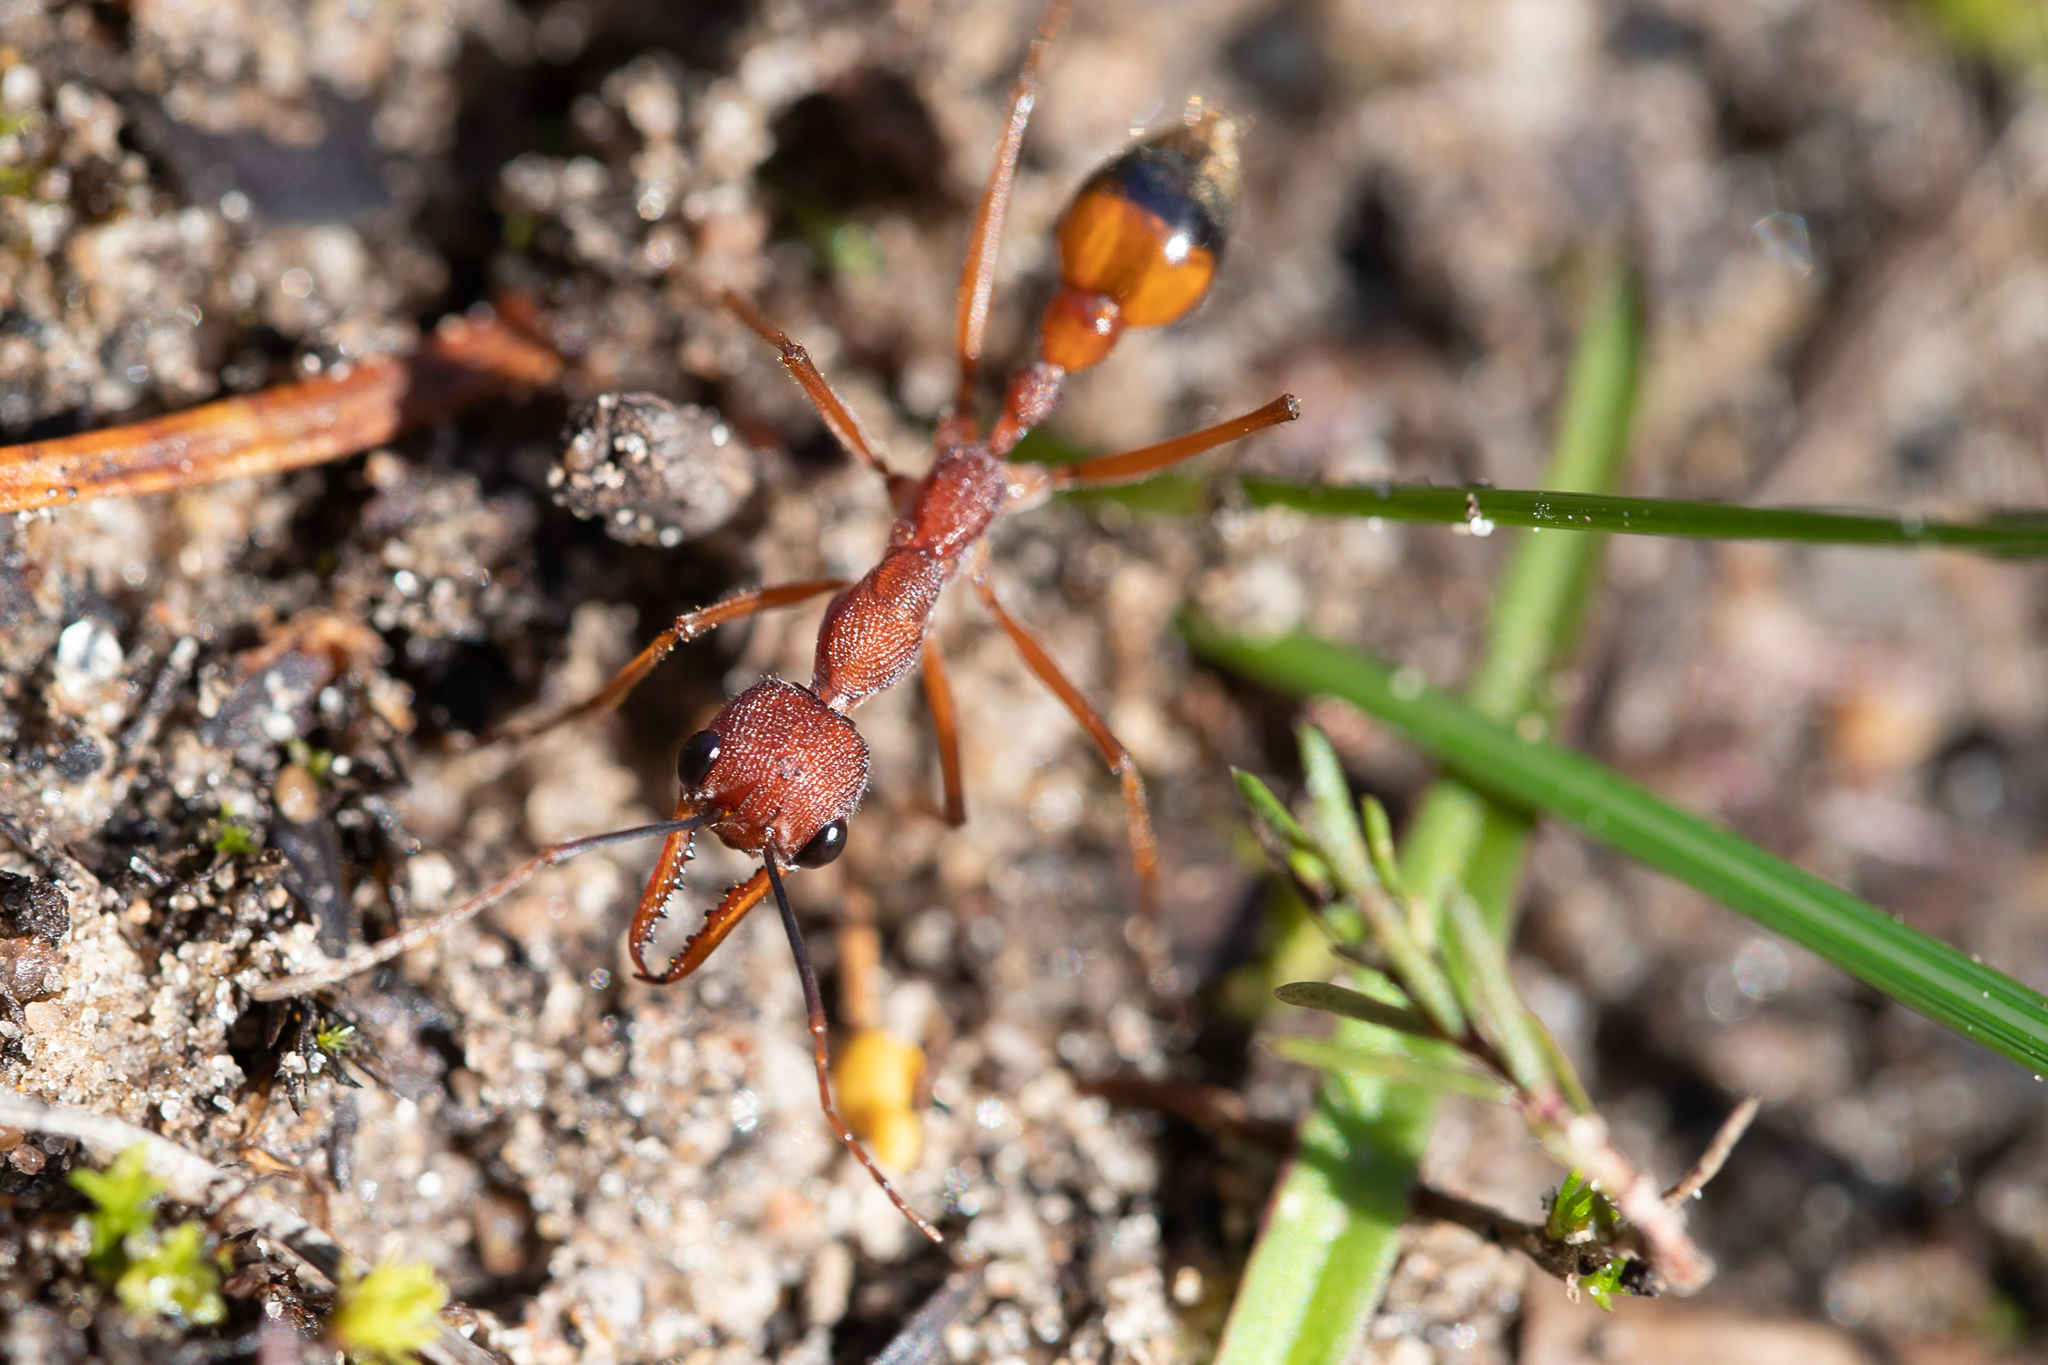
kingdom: Animalia
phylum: Arthropoda
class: Insecta
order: Hymenoptera
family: Formicidae
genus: Myrmecia
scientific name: Myrmecia nigriscapa
